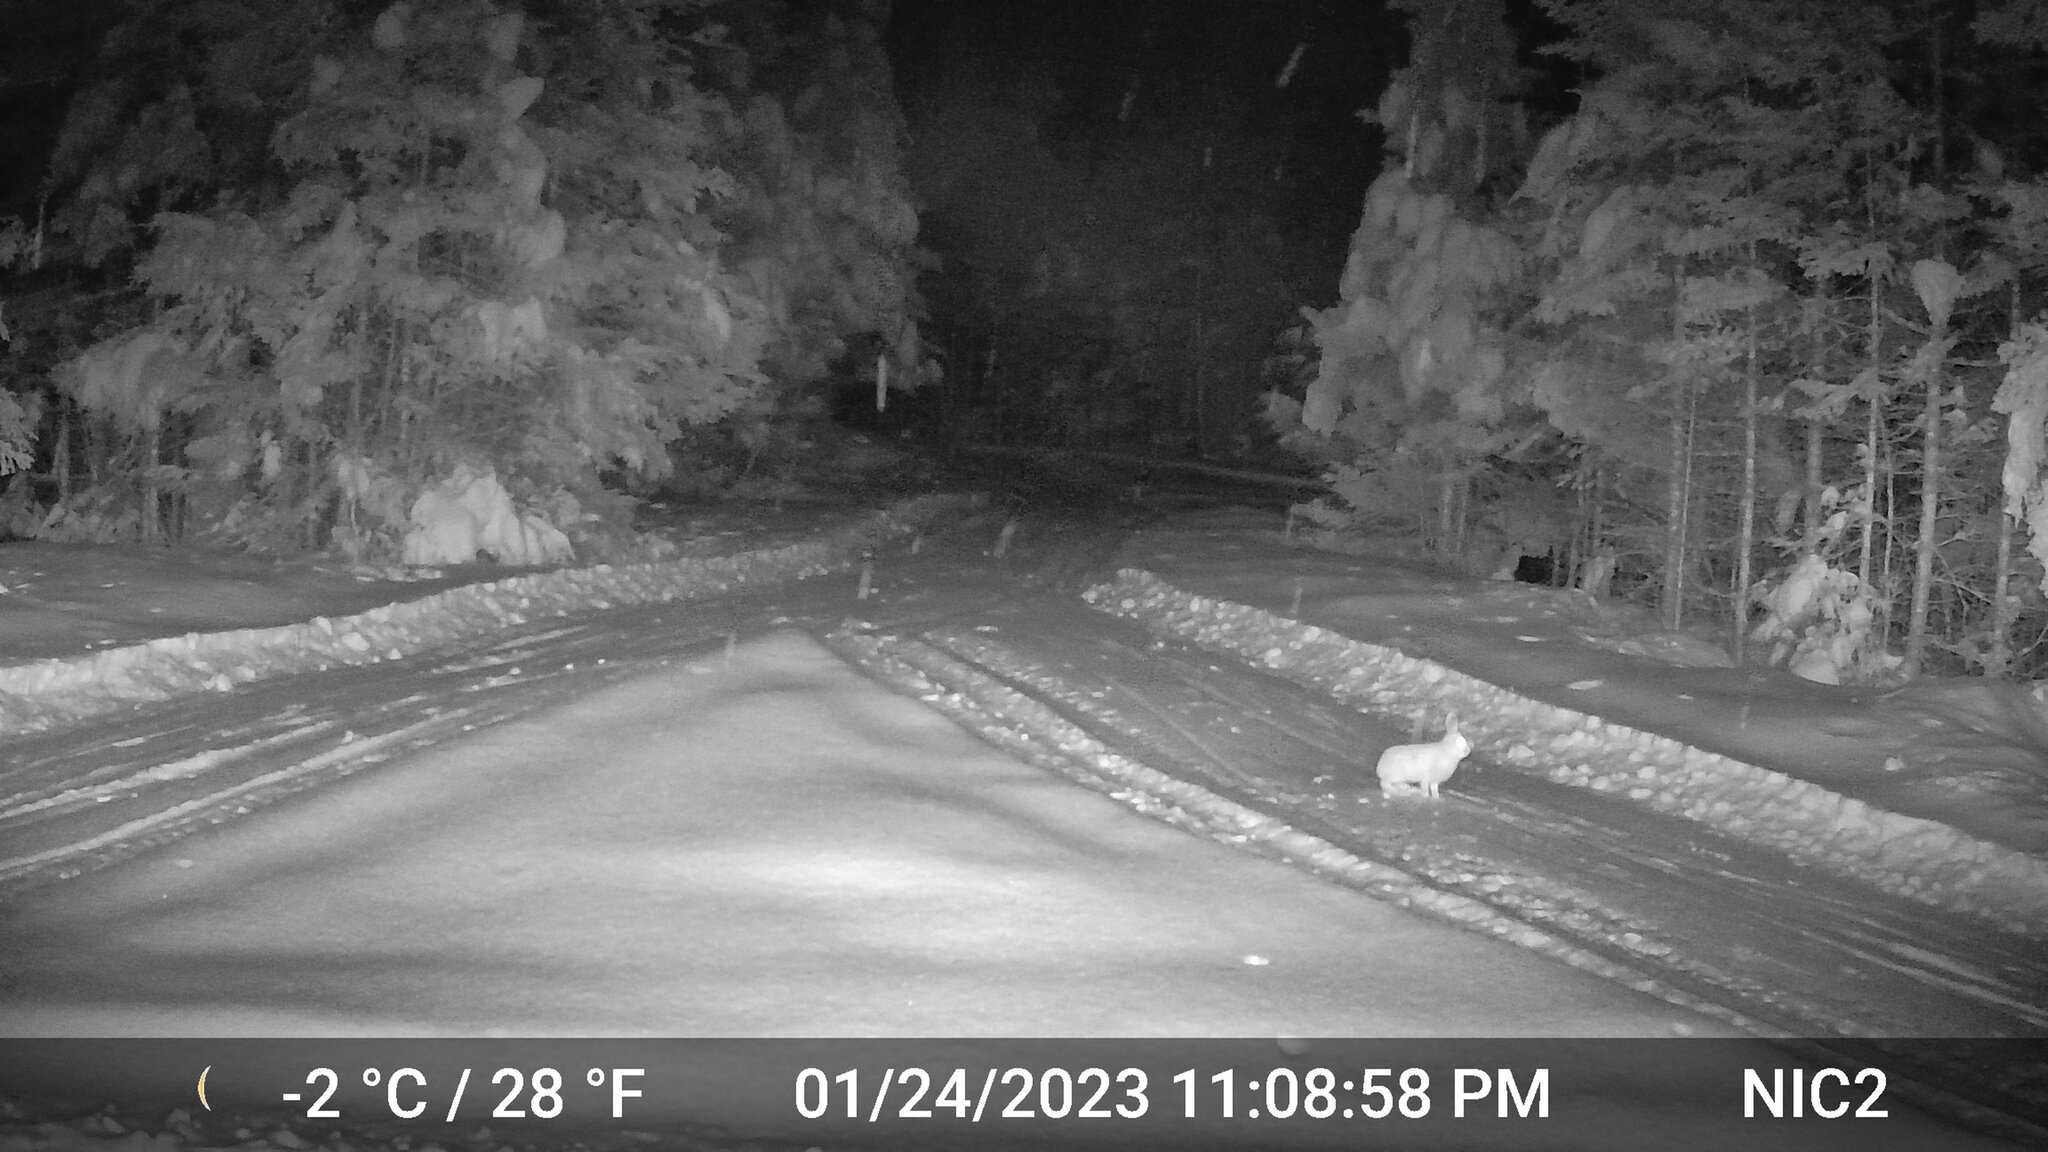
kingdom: Animalia
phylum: Chordata
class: Mammalia
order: Lagomorpha
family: Leporidae
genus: Lepus
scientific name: Lepus americanus
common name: Snowshoe hare
